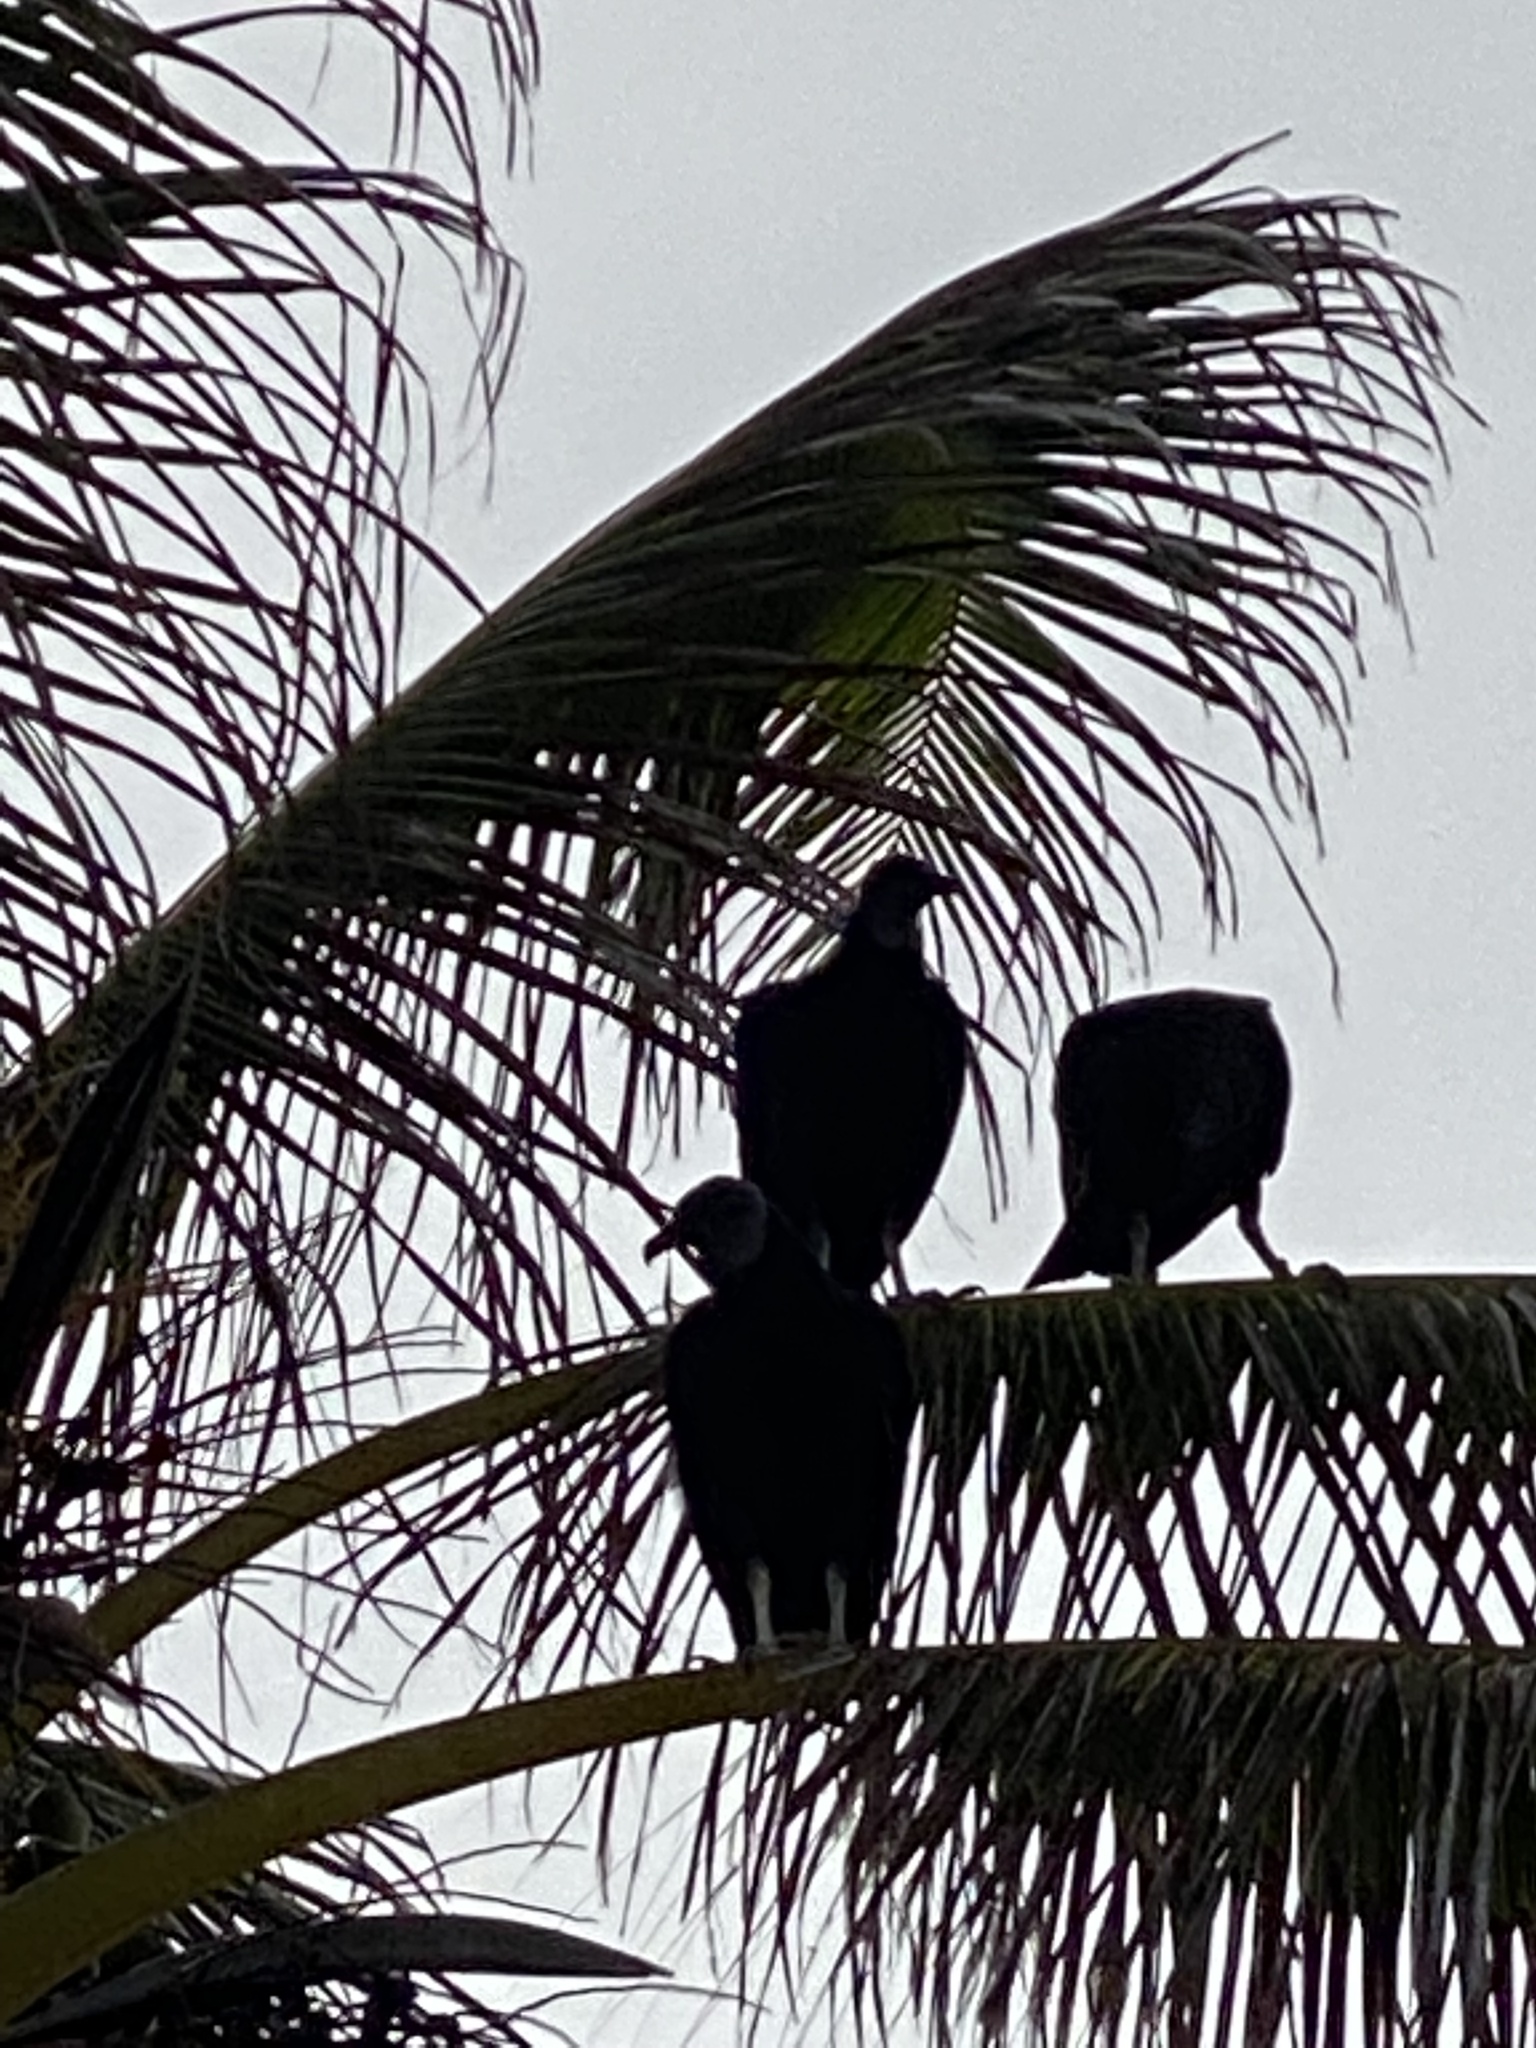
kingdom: Animalia
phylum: Chordata
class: Aves
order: Accipitriformes
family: Cathartidae
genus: Coragyps
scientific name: Coragyps atratus
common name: Black vulture
